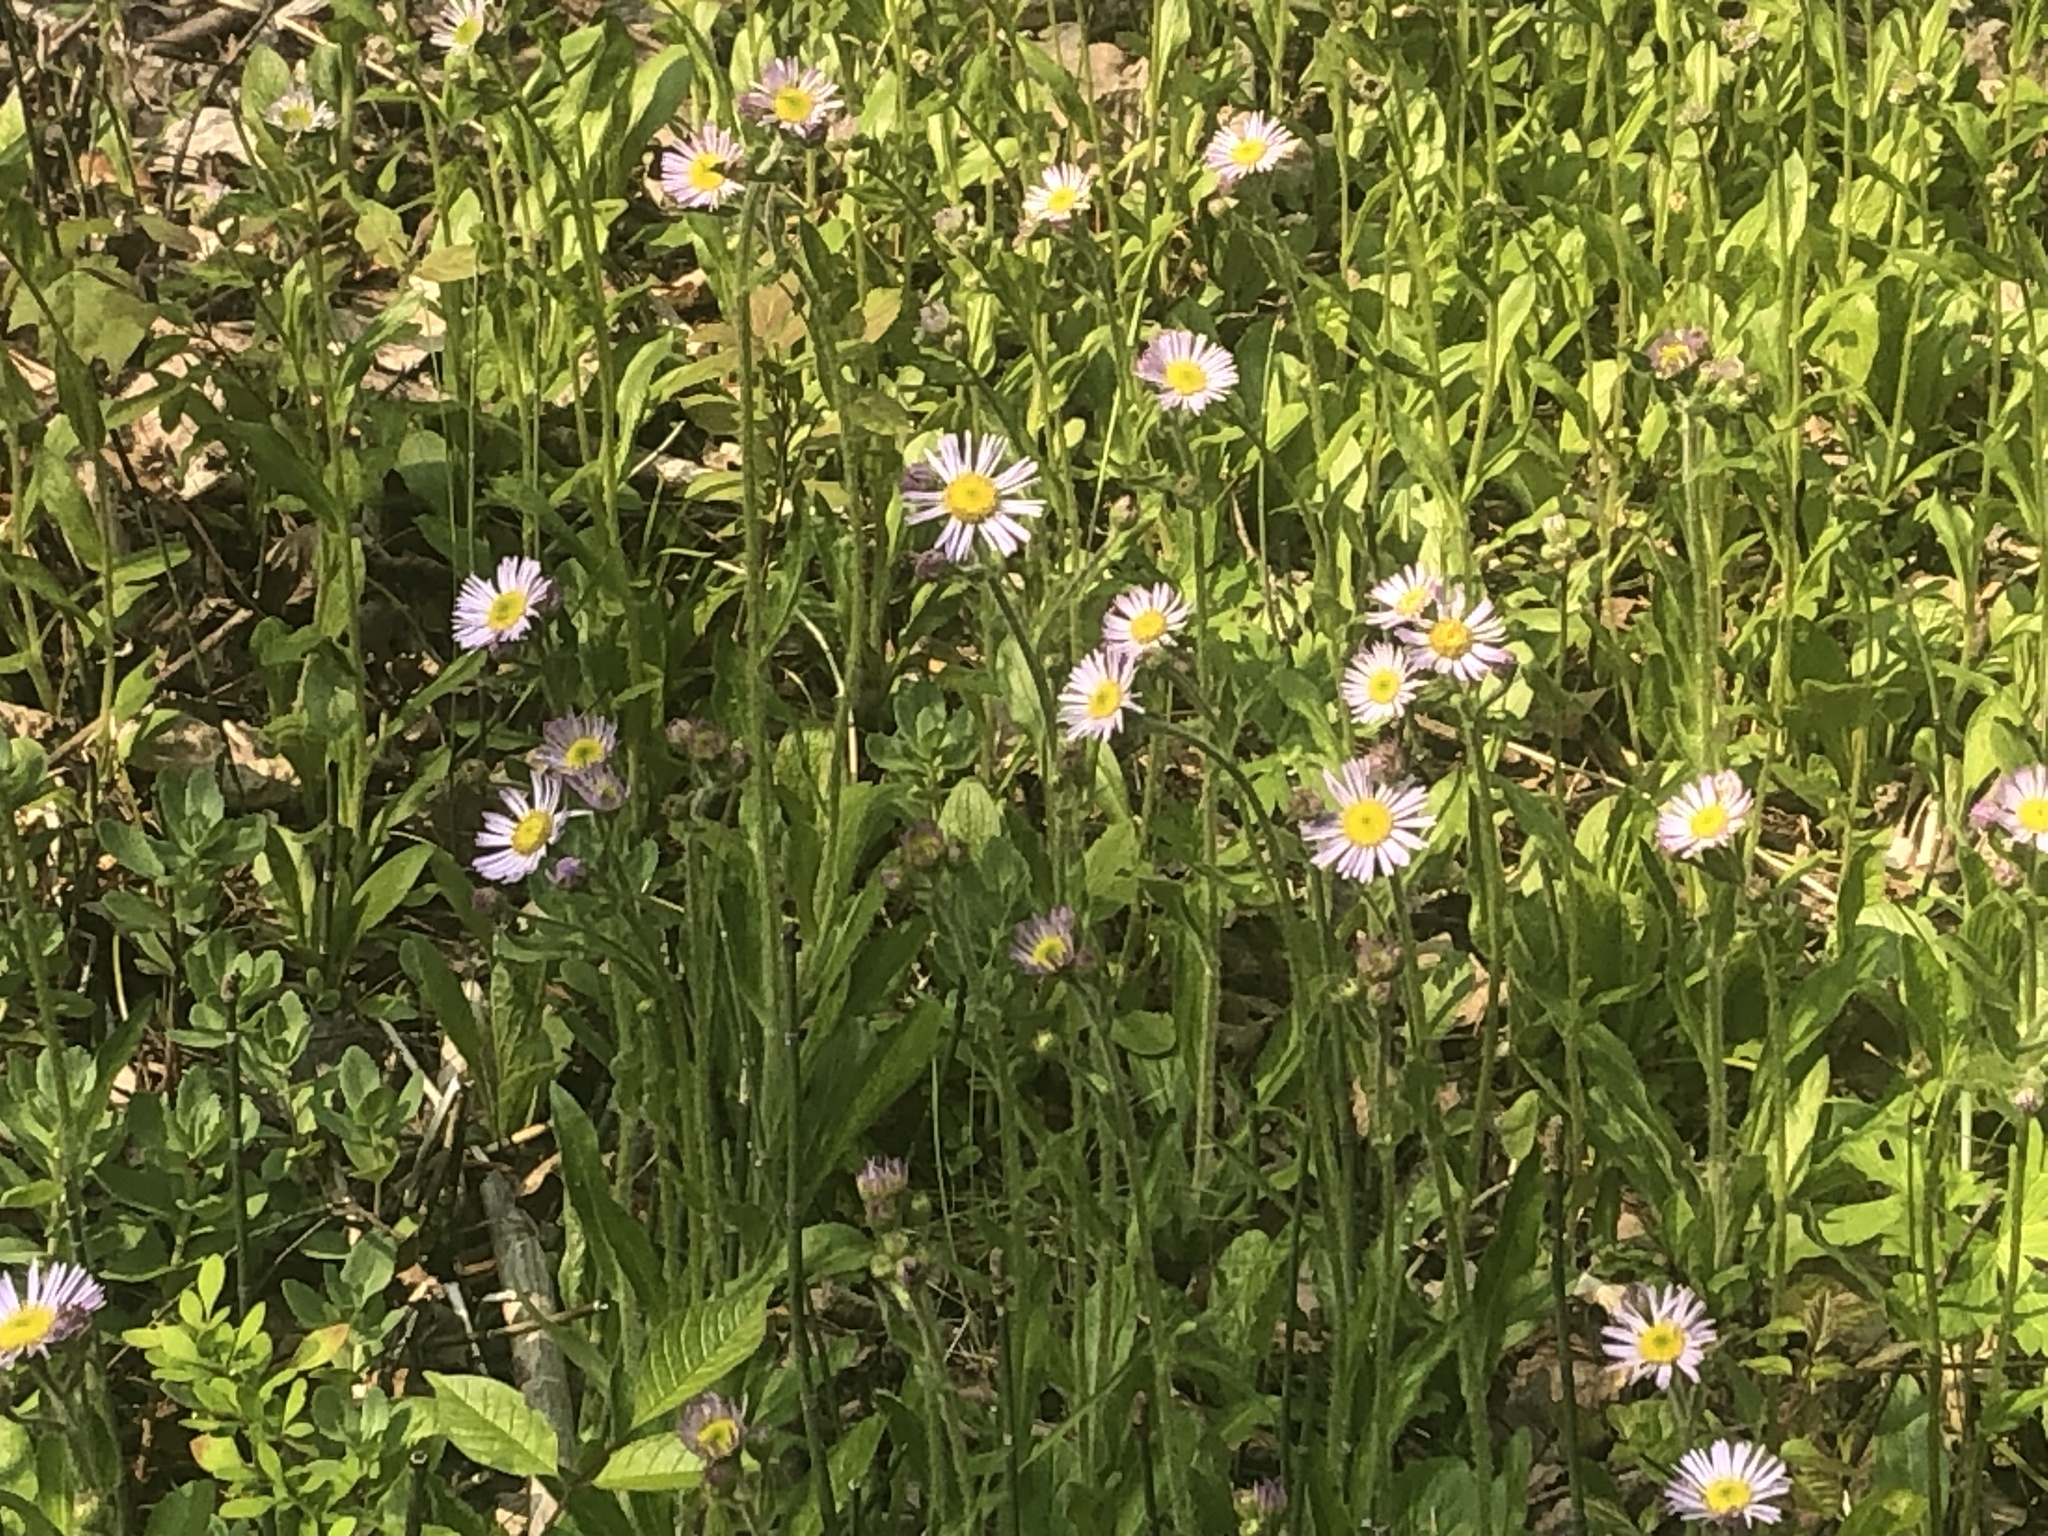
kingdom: Plantae
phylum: Tracheophyta
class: Magnoliopsida
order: Asterales
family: Asteraceae
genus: Erigeron
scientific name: Erigeron pulchellus
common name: Hairy fleabane
